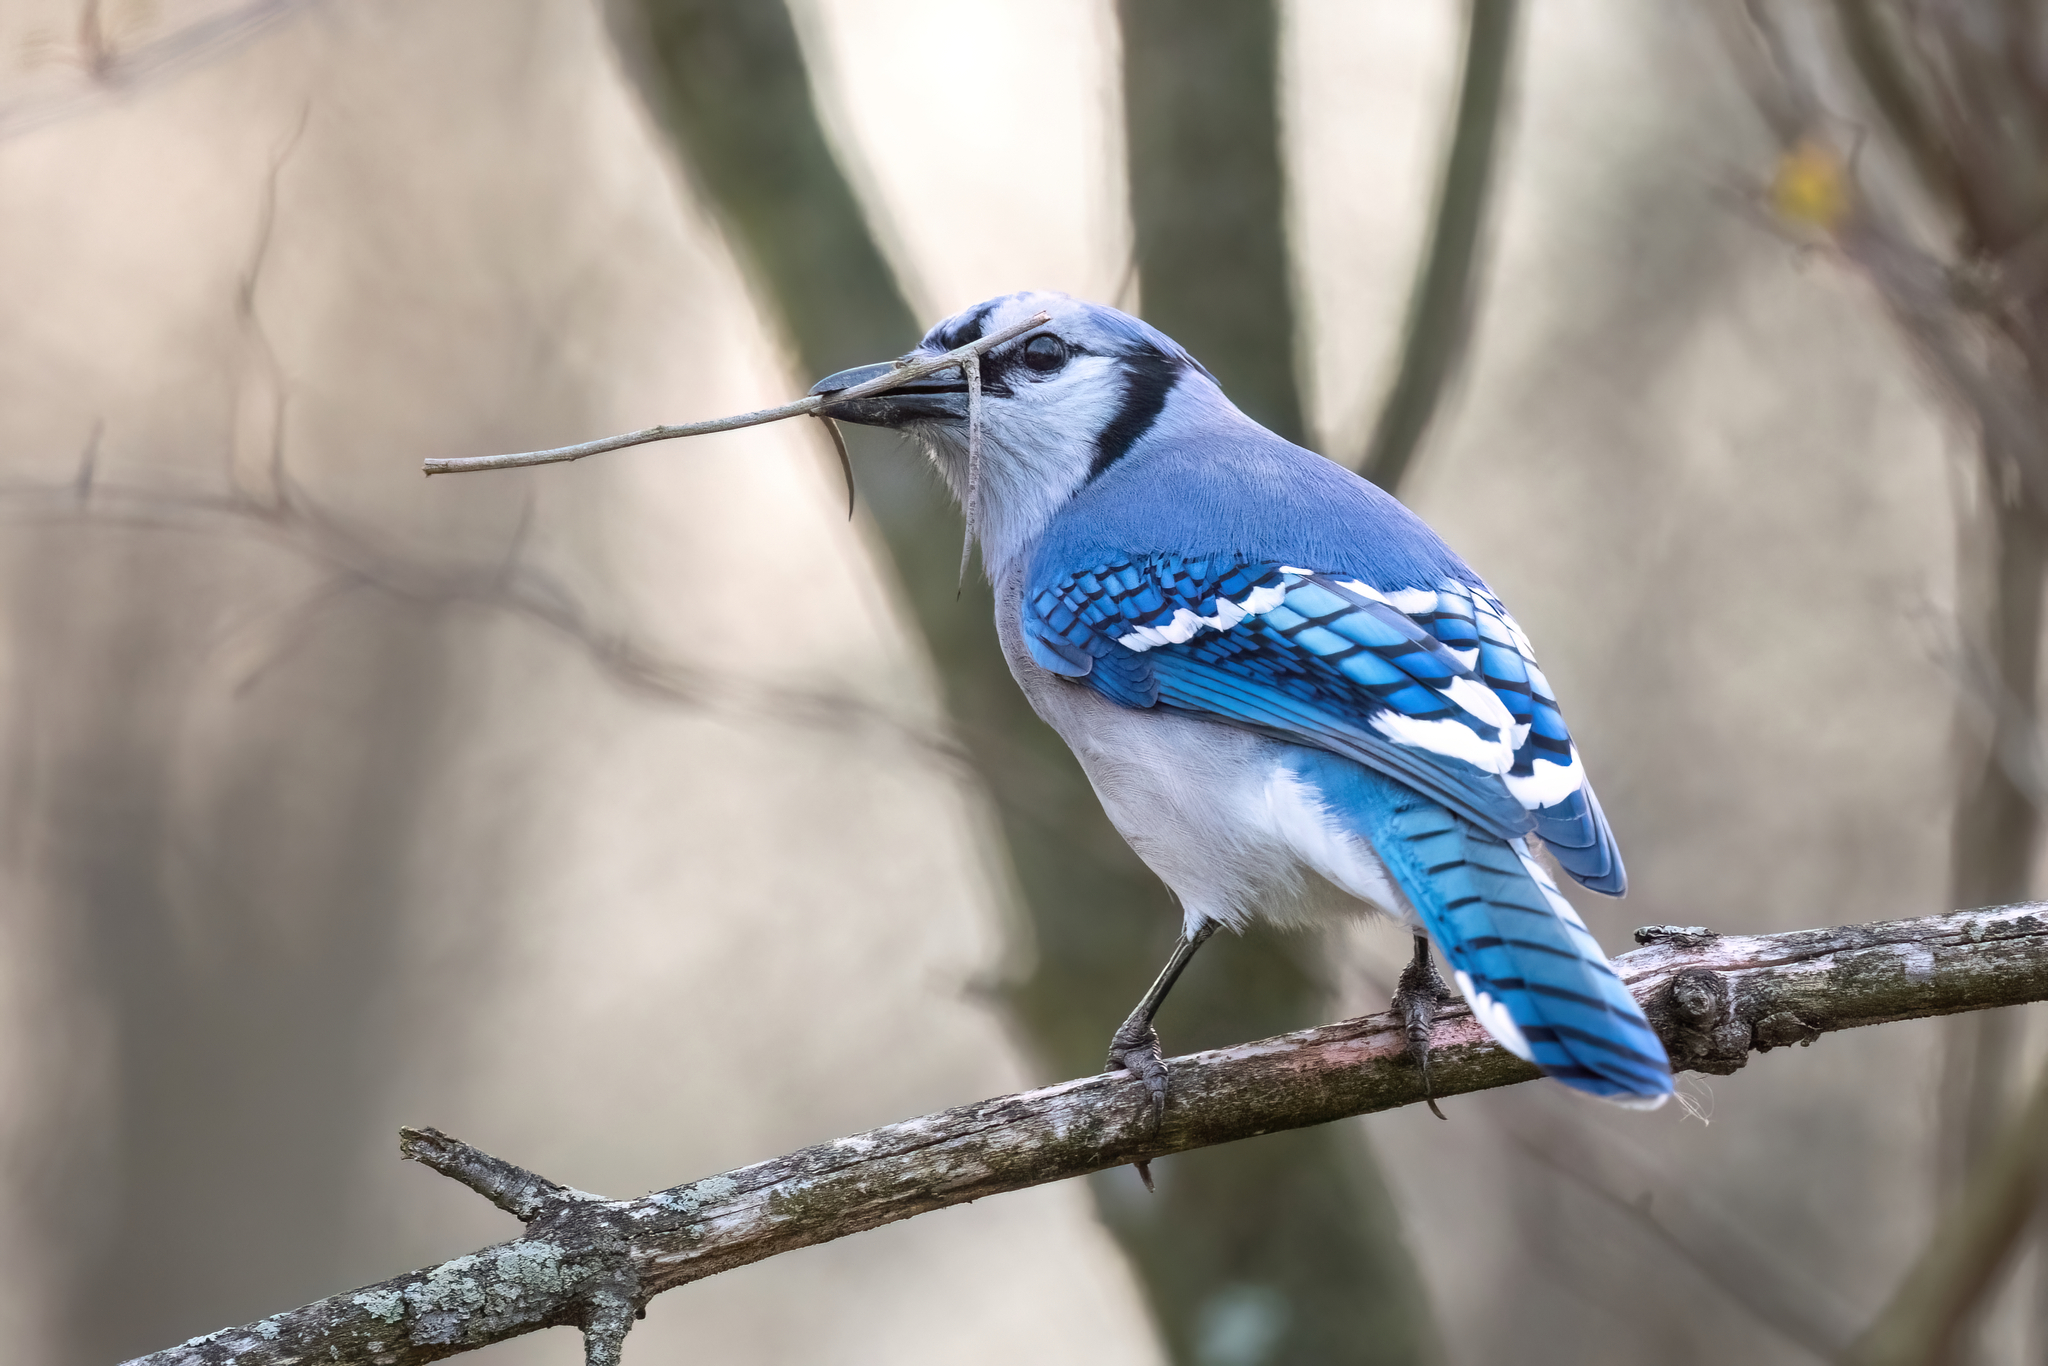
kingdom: Animalia
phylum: Chordata
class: Aves
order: Passeriformes
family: Corvidae
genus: Cyanocitta
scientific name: Cyanocitta cristata
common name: Blue jay
